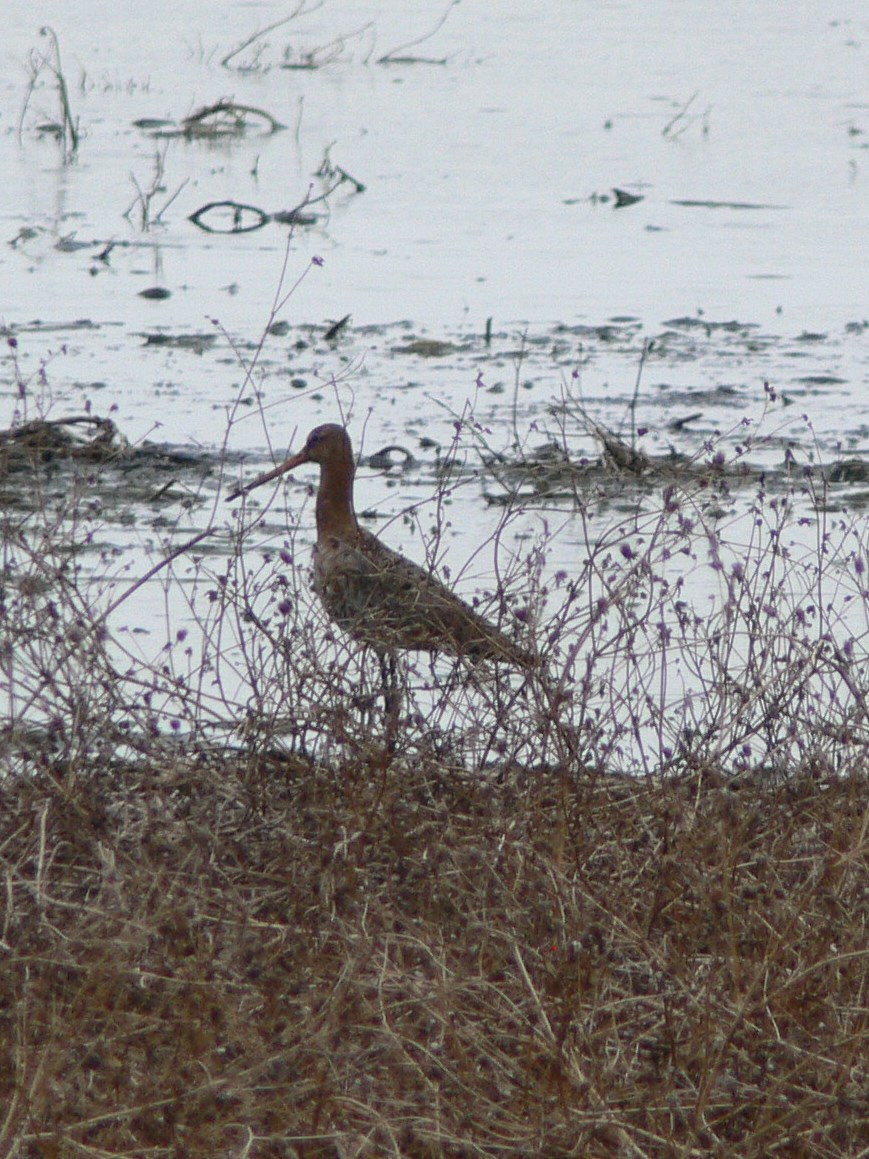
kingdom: Animalia
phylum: Chordata
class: Aves
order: Charadriiformes
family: Scolopacidae
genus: Limosa
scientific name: Limosa limosa
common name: Black-tailed godwit
